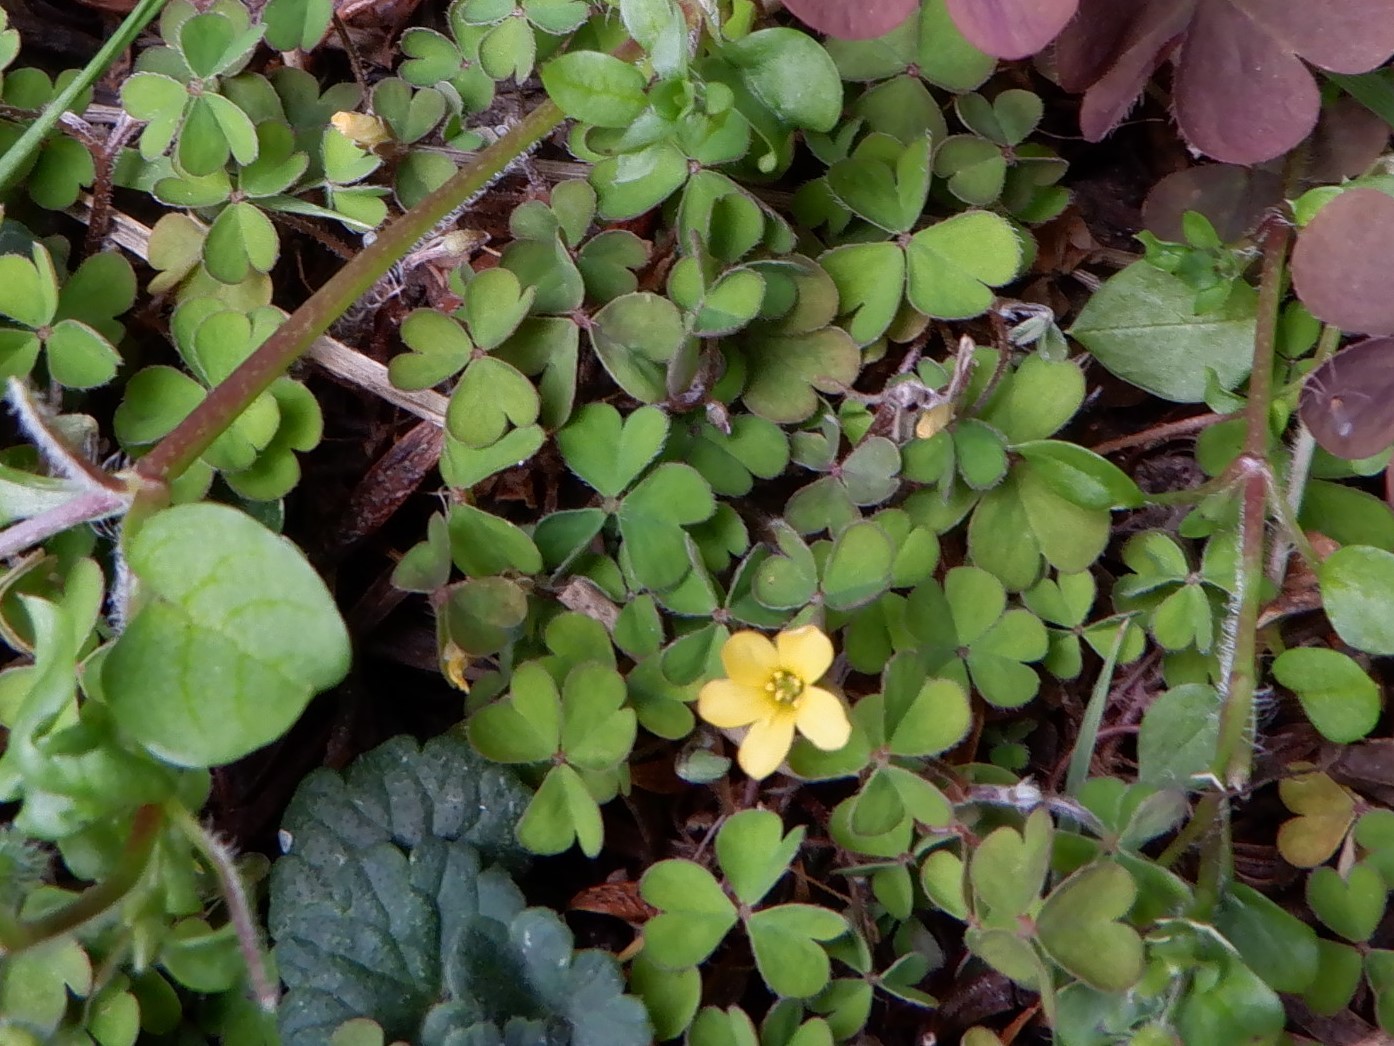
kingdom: Plantae
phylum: Tracheophyta
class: Magnoliopsida
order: Oxalidales
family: Oxalidaceae
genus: Oxalis
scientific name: Oxalis exilis
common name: Least yellow-sorrel
